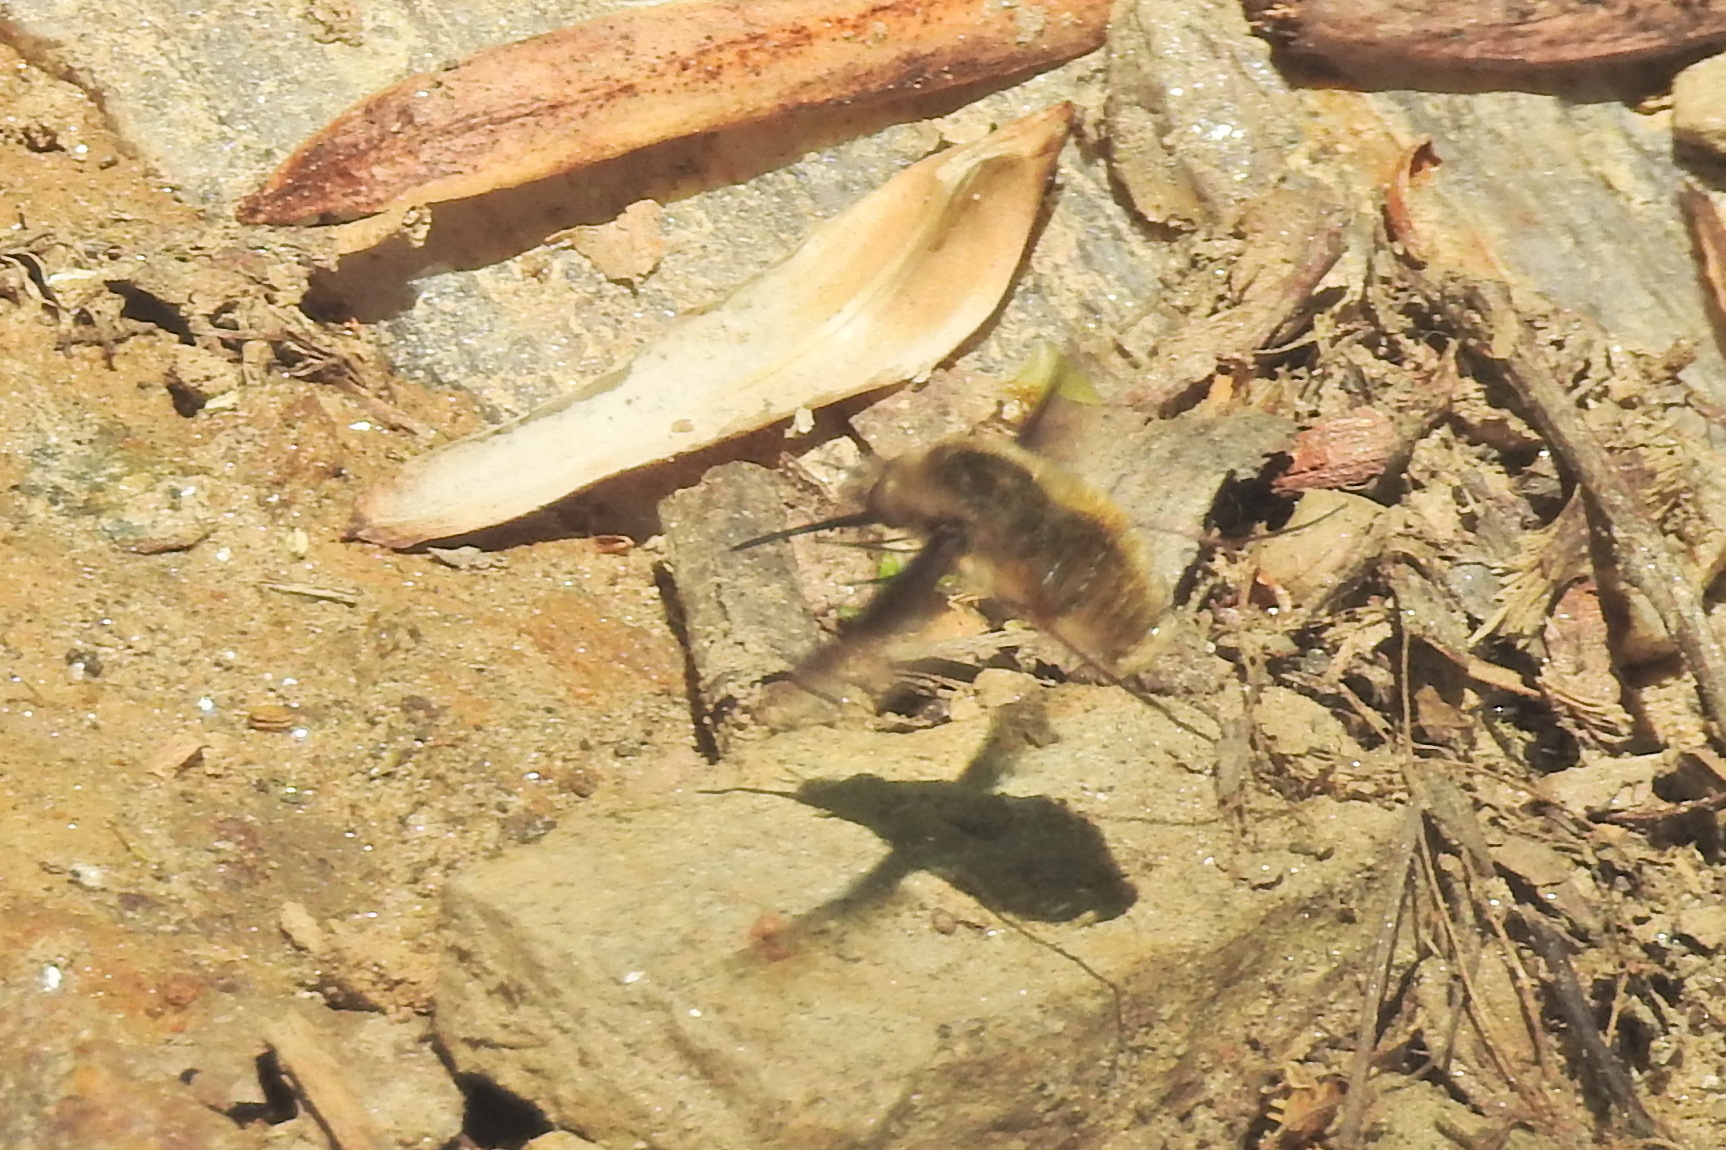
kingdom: Animalia
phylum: Arthropoda
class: Insecta
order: Diptera
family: Bombyliidae
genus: Bombylius
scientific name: Bombylius major
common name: Bee fly
